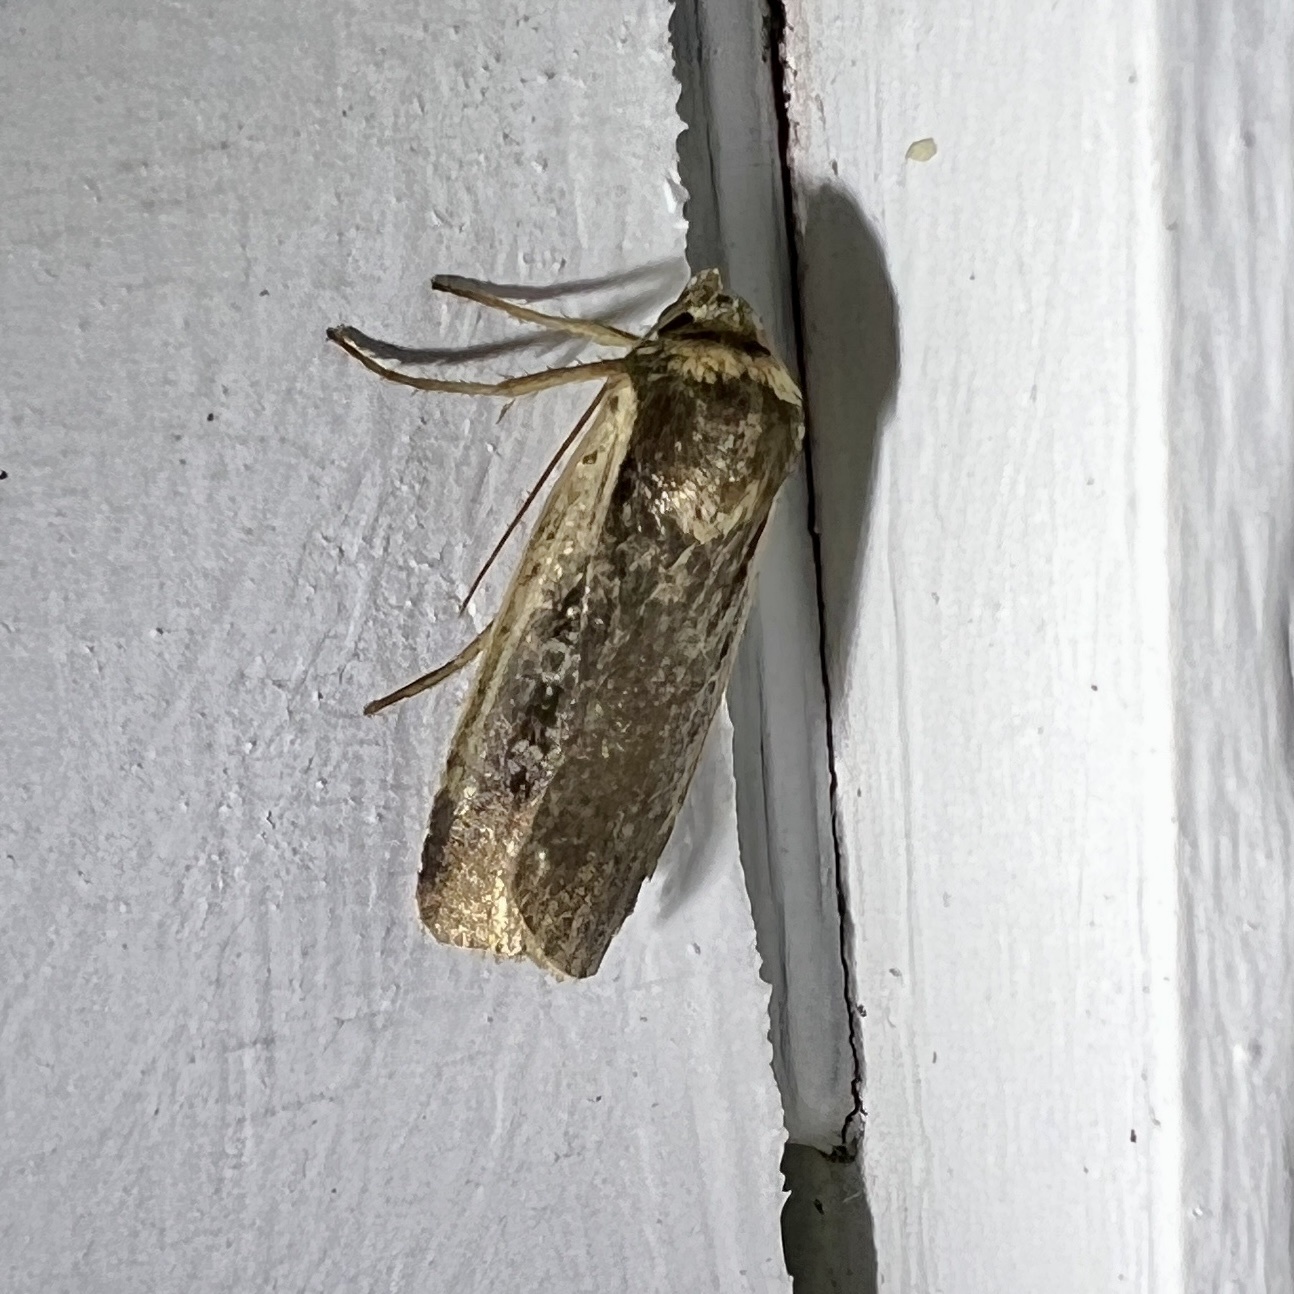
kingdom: Animalia
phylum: Arthropoda
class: Insecta
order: Lepidoptera
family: Noctuidae
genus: Ochropleura
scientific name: Ochropleura implecta
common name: Flame-shouldered dart
